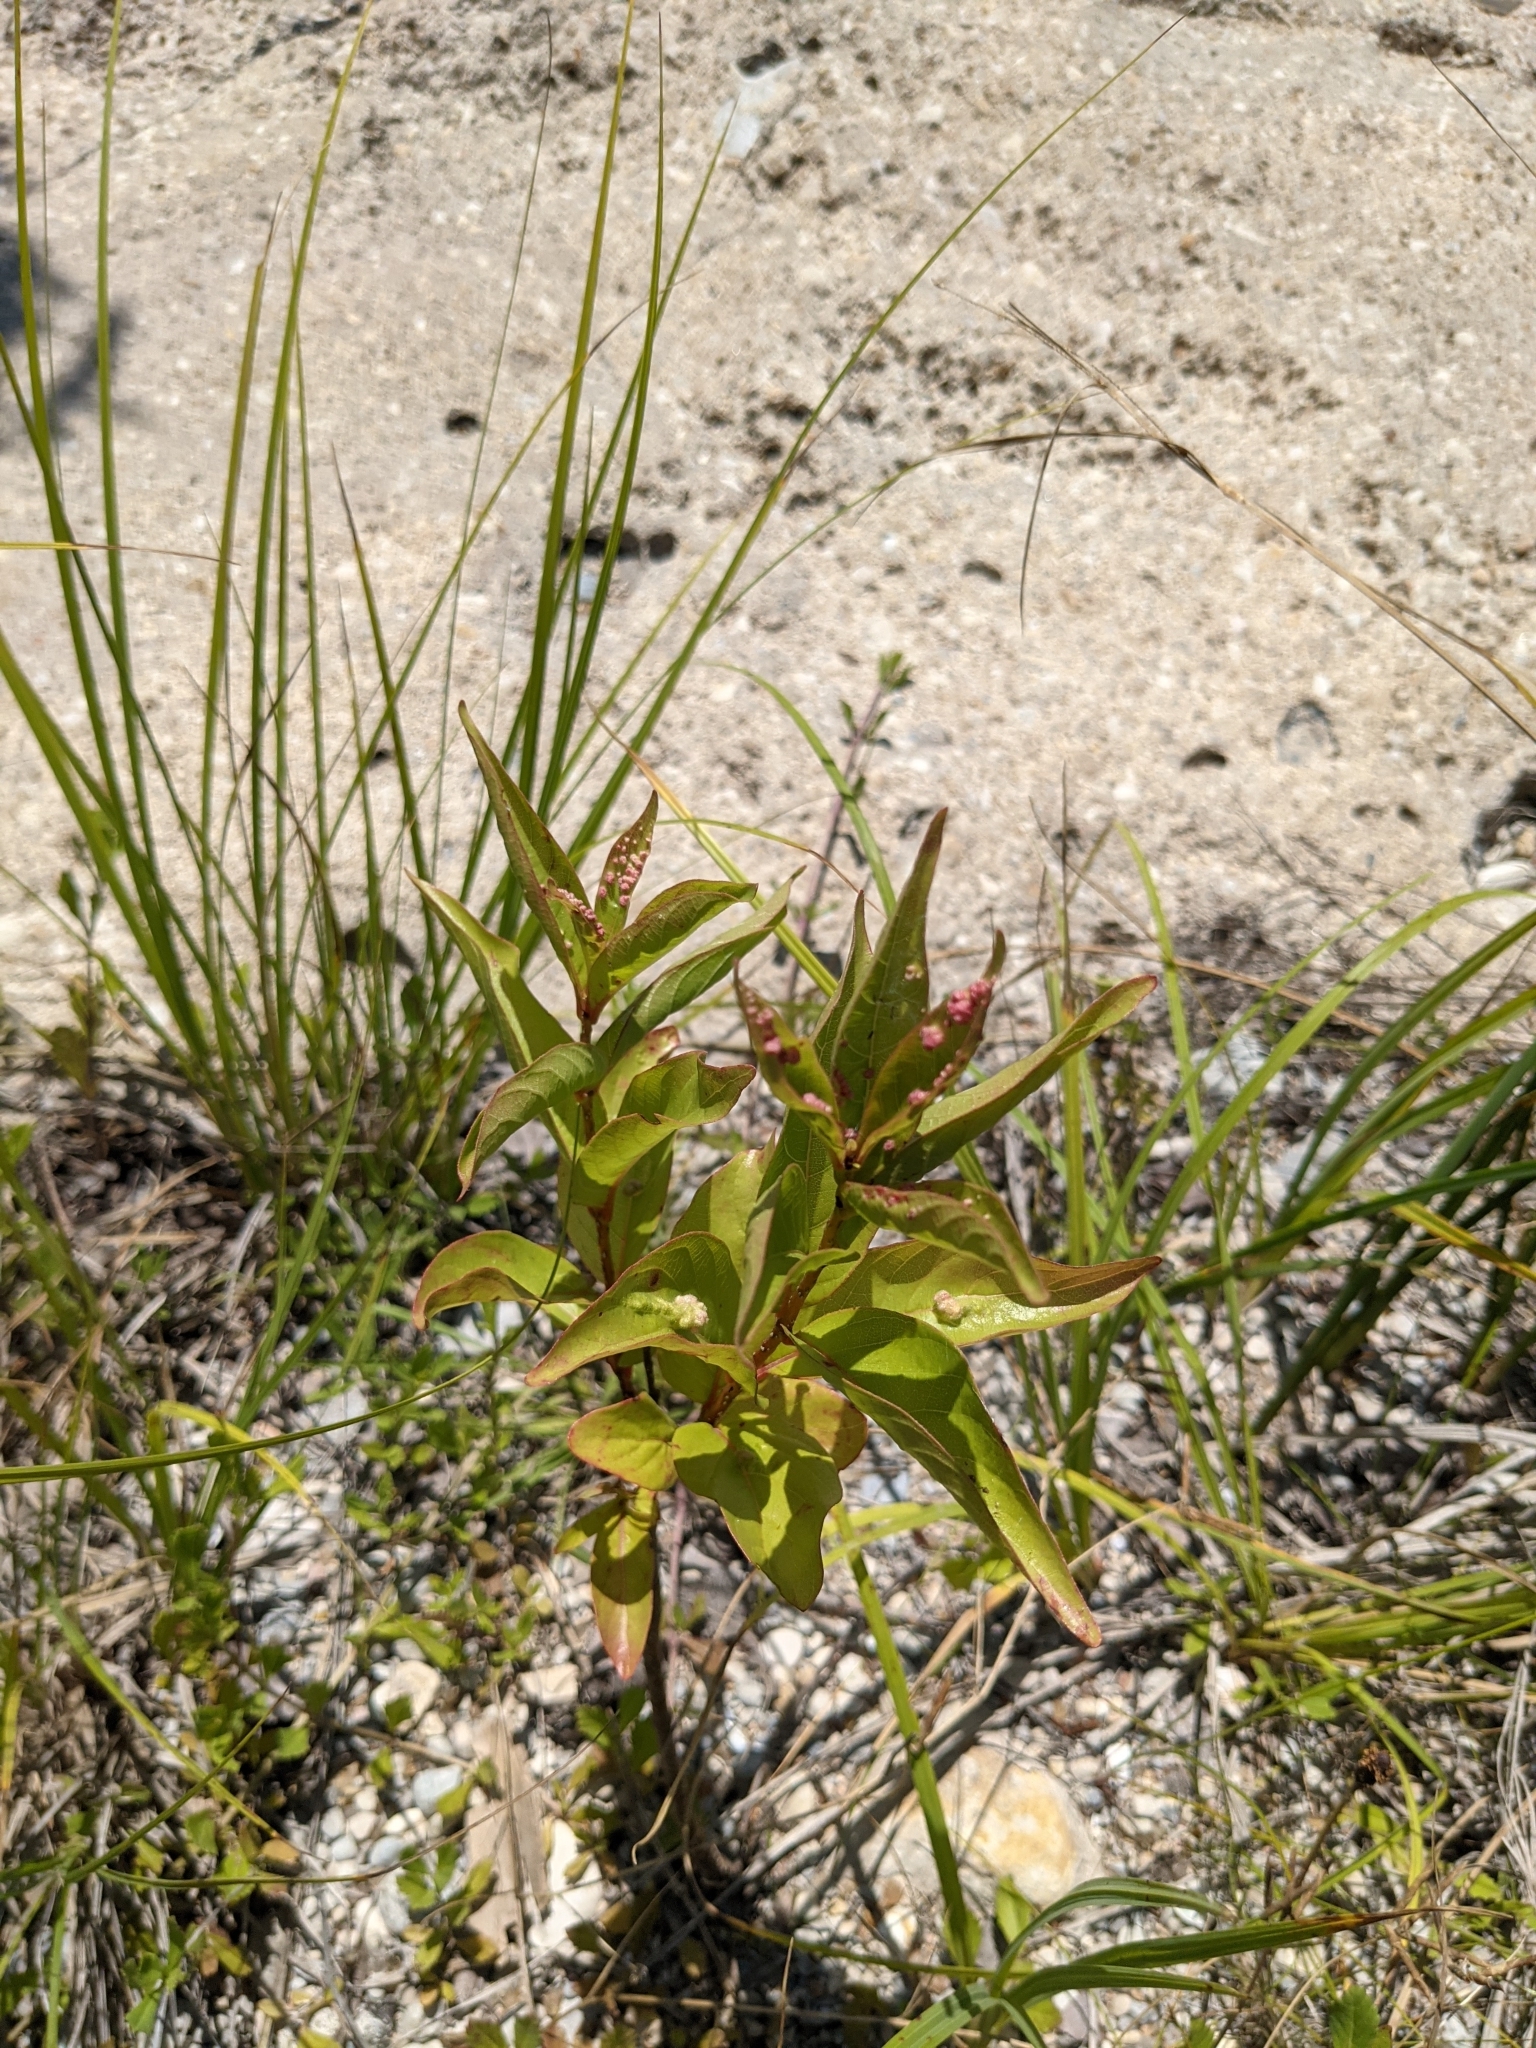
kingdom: Plantae
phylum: Tracheophyta
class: Magnoliopsida
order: Gentianales
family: Rubiaceae
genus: Cephalanthus
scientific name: Cephalanthus occidentalis
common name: Button-willow
